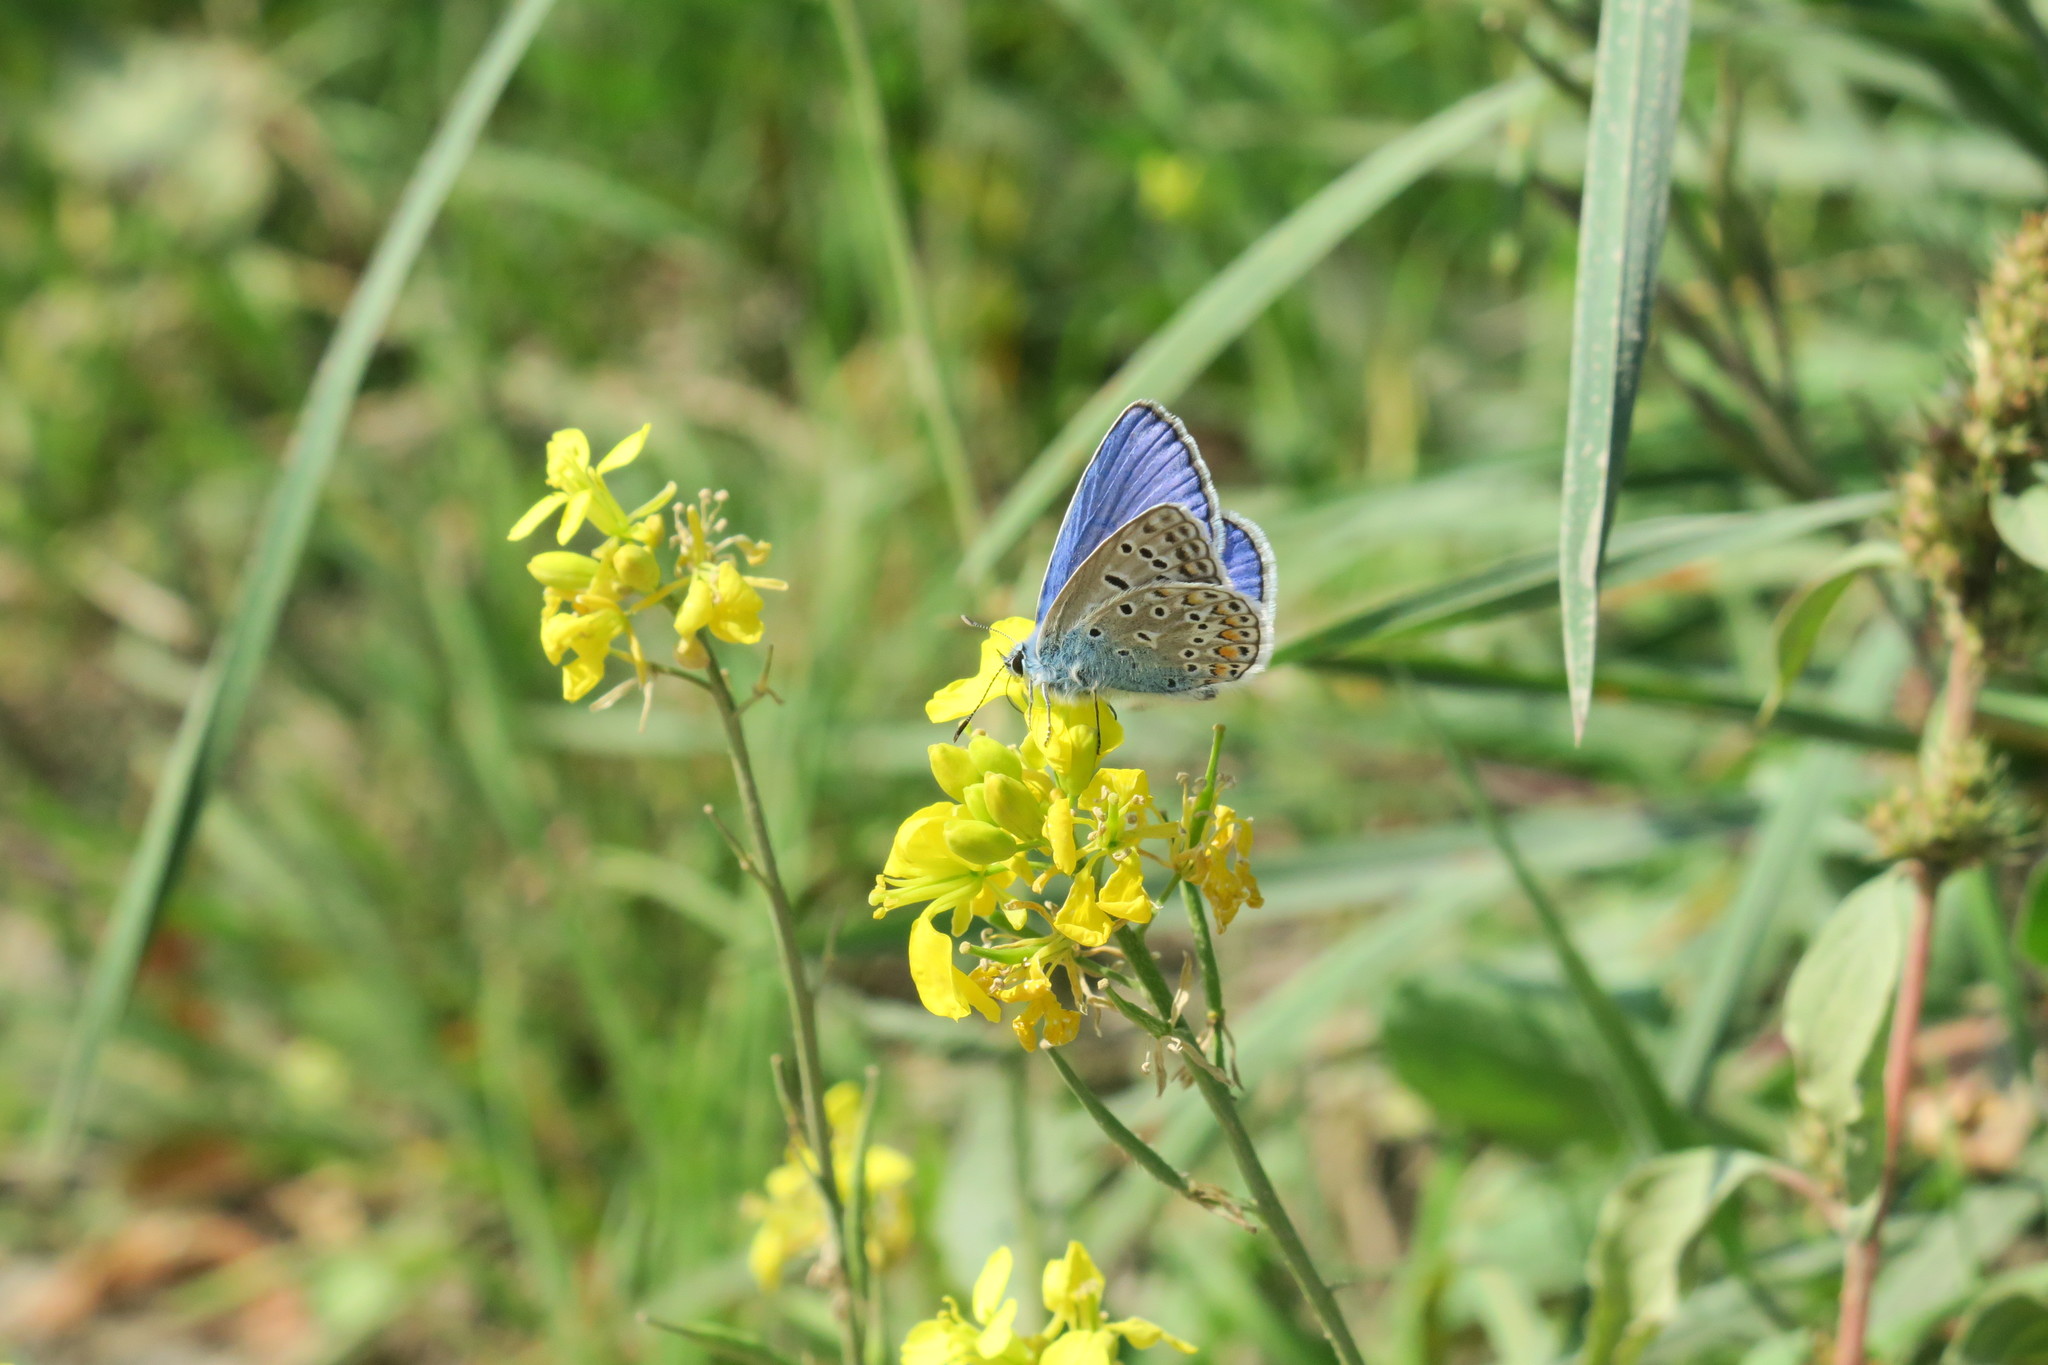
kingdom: Animalia
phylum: Arthropoda
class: Insecta
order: Lepidoptera
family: Lycaenidae
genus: Polyommatus
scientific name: Polyommatus icarus
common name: Common blue
